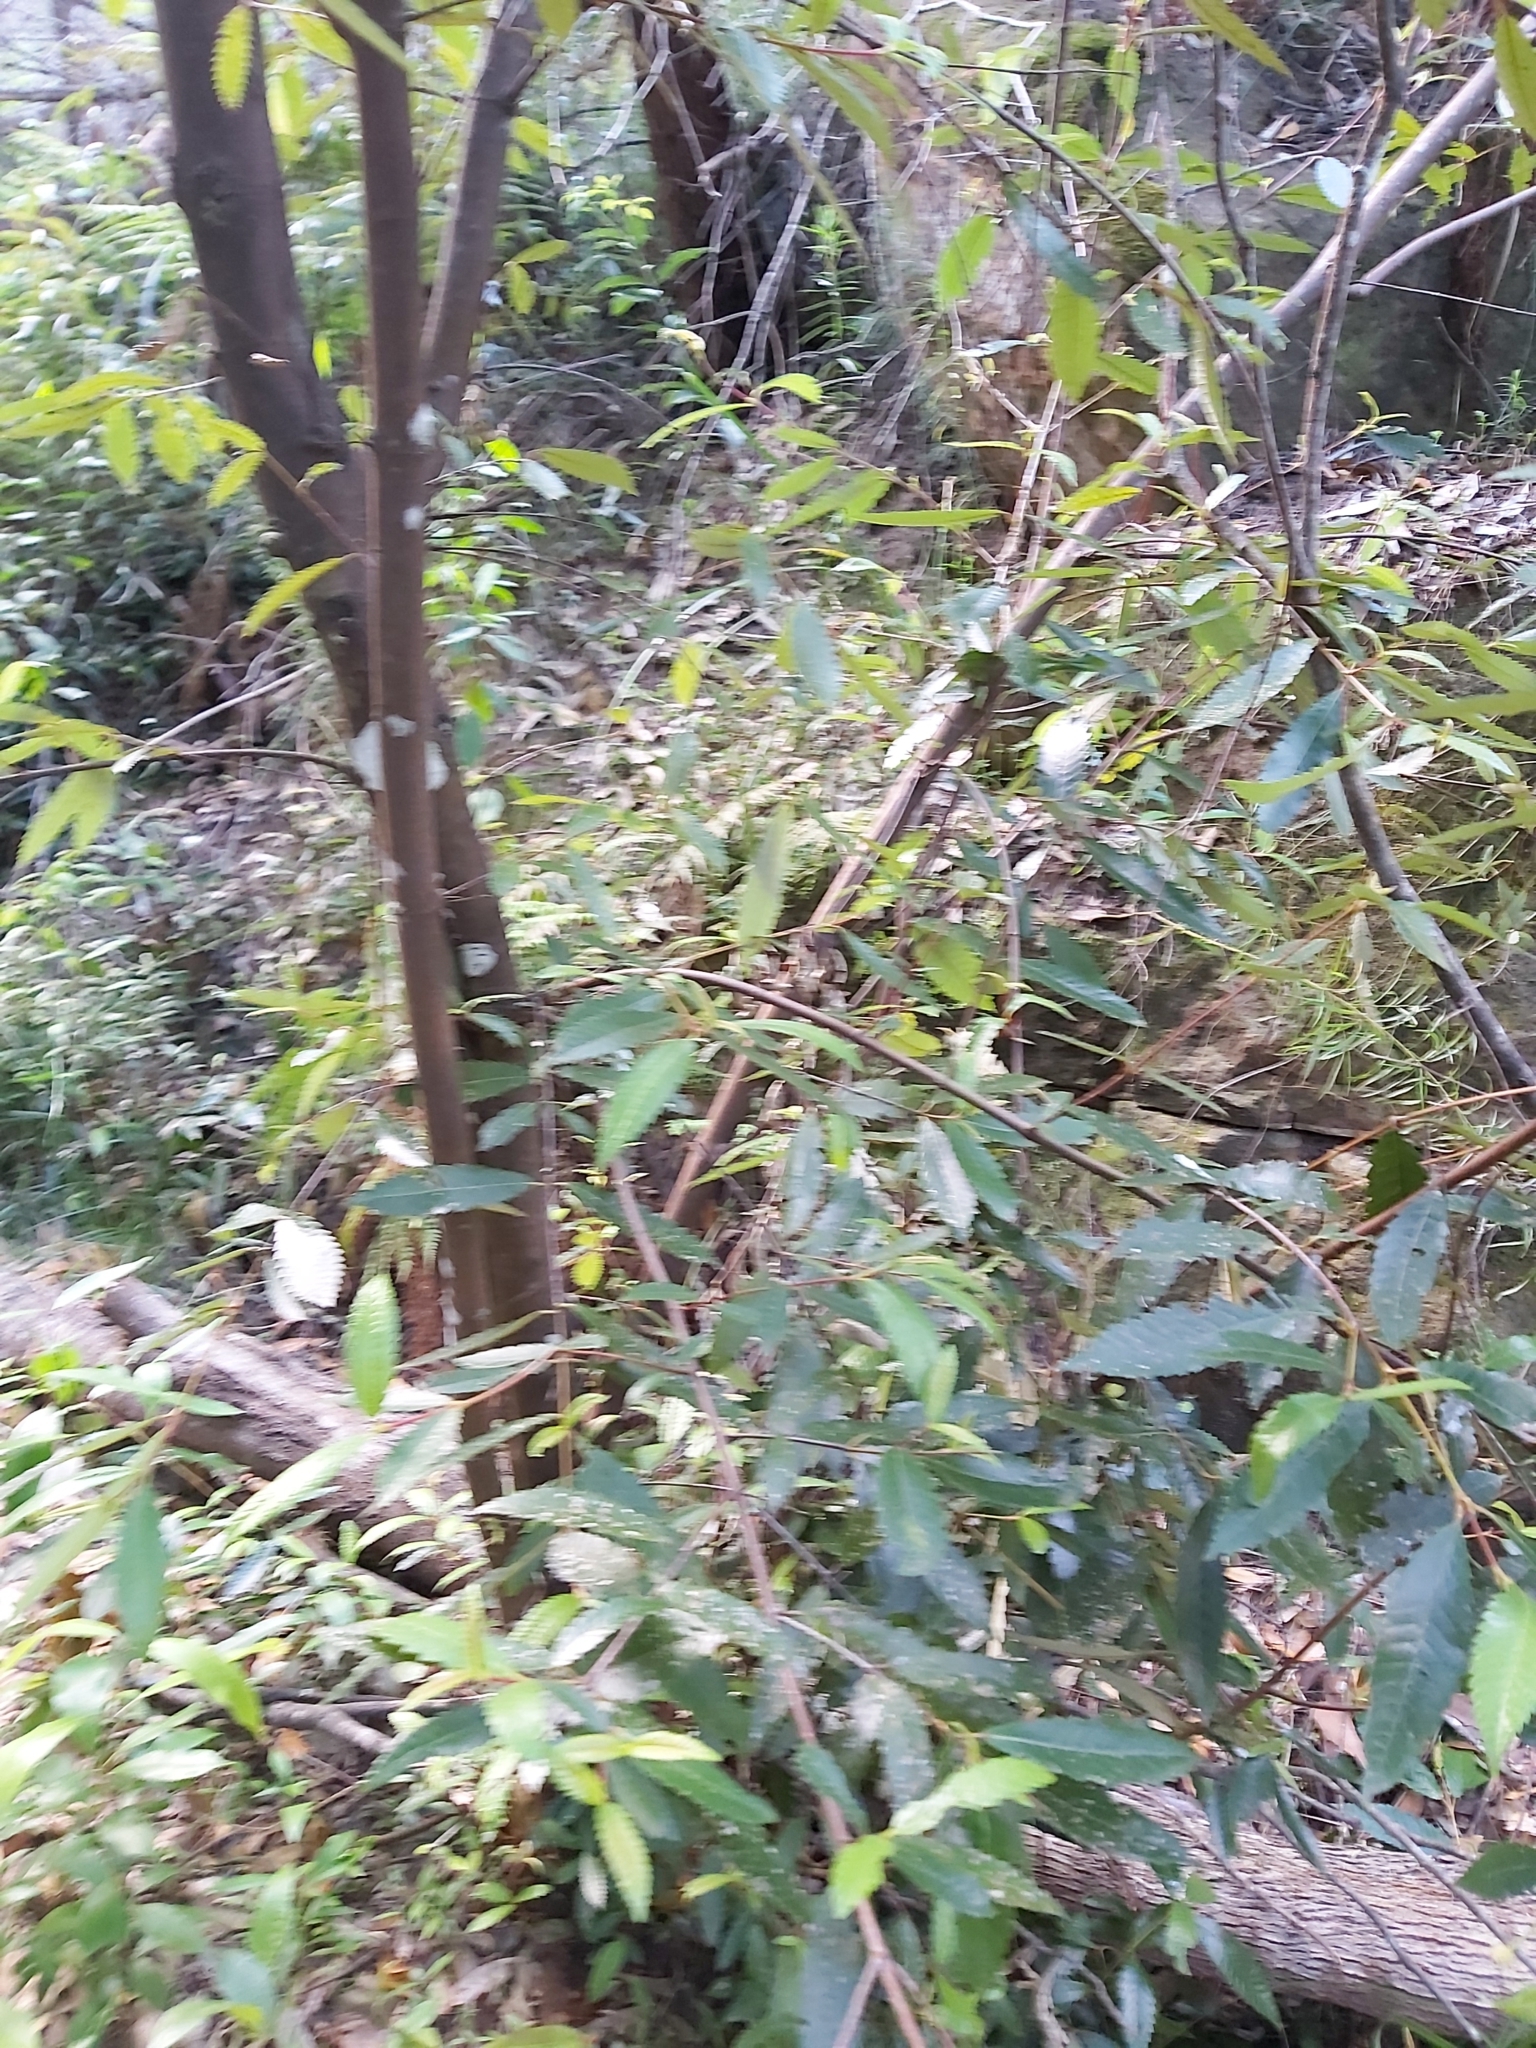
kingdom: Plantae
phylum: Tracheophyta
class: Magnoliopsida
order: Oxalidales
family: Cunoniaceae
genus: Callicoma
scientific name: Callicoma serratifolia
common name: Black wattle
